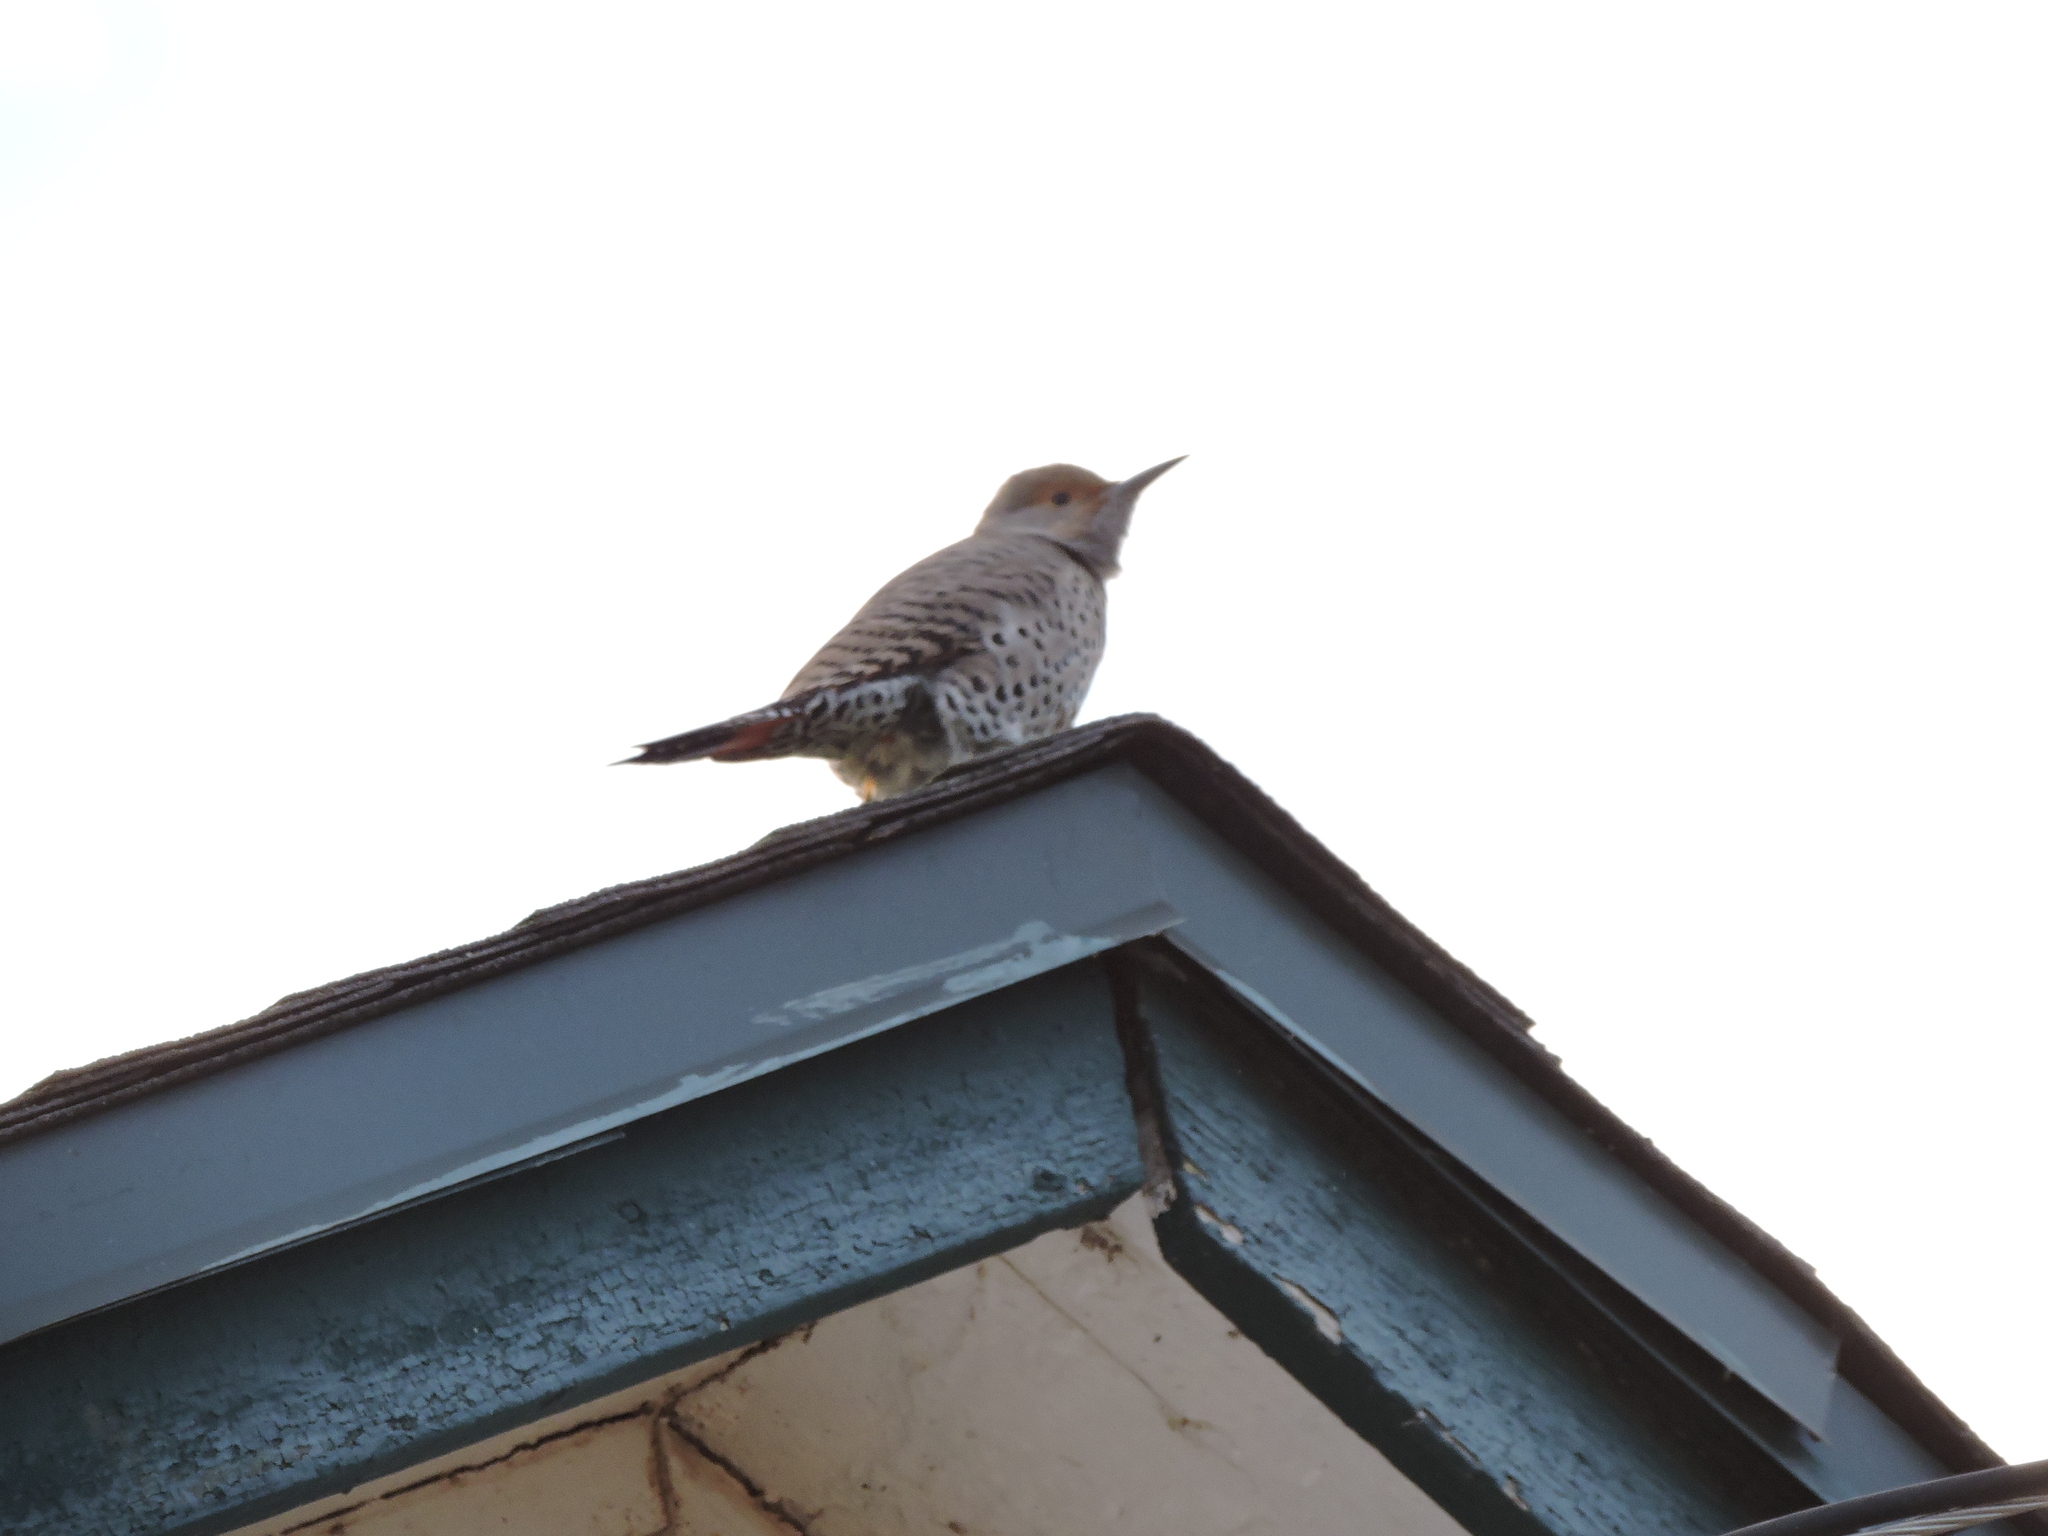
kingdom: Animalia
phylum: Chordata
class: Aves
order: Piciformes
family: Picidae
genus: Colaptes
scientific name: Colaptes auratus
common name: Northern flicker
